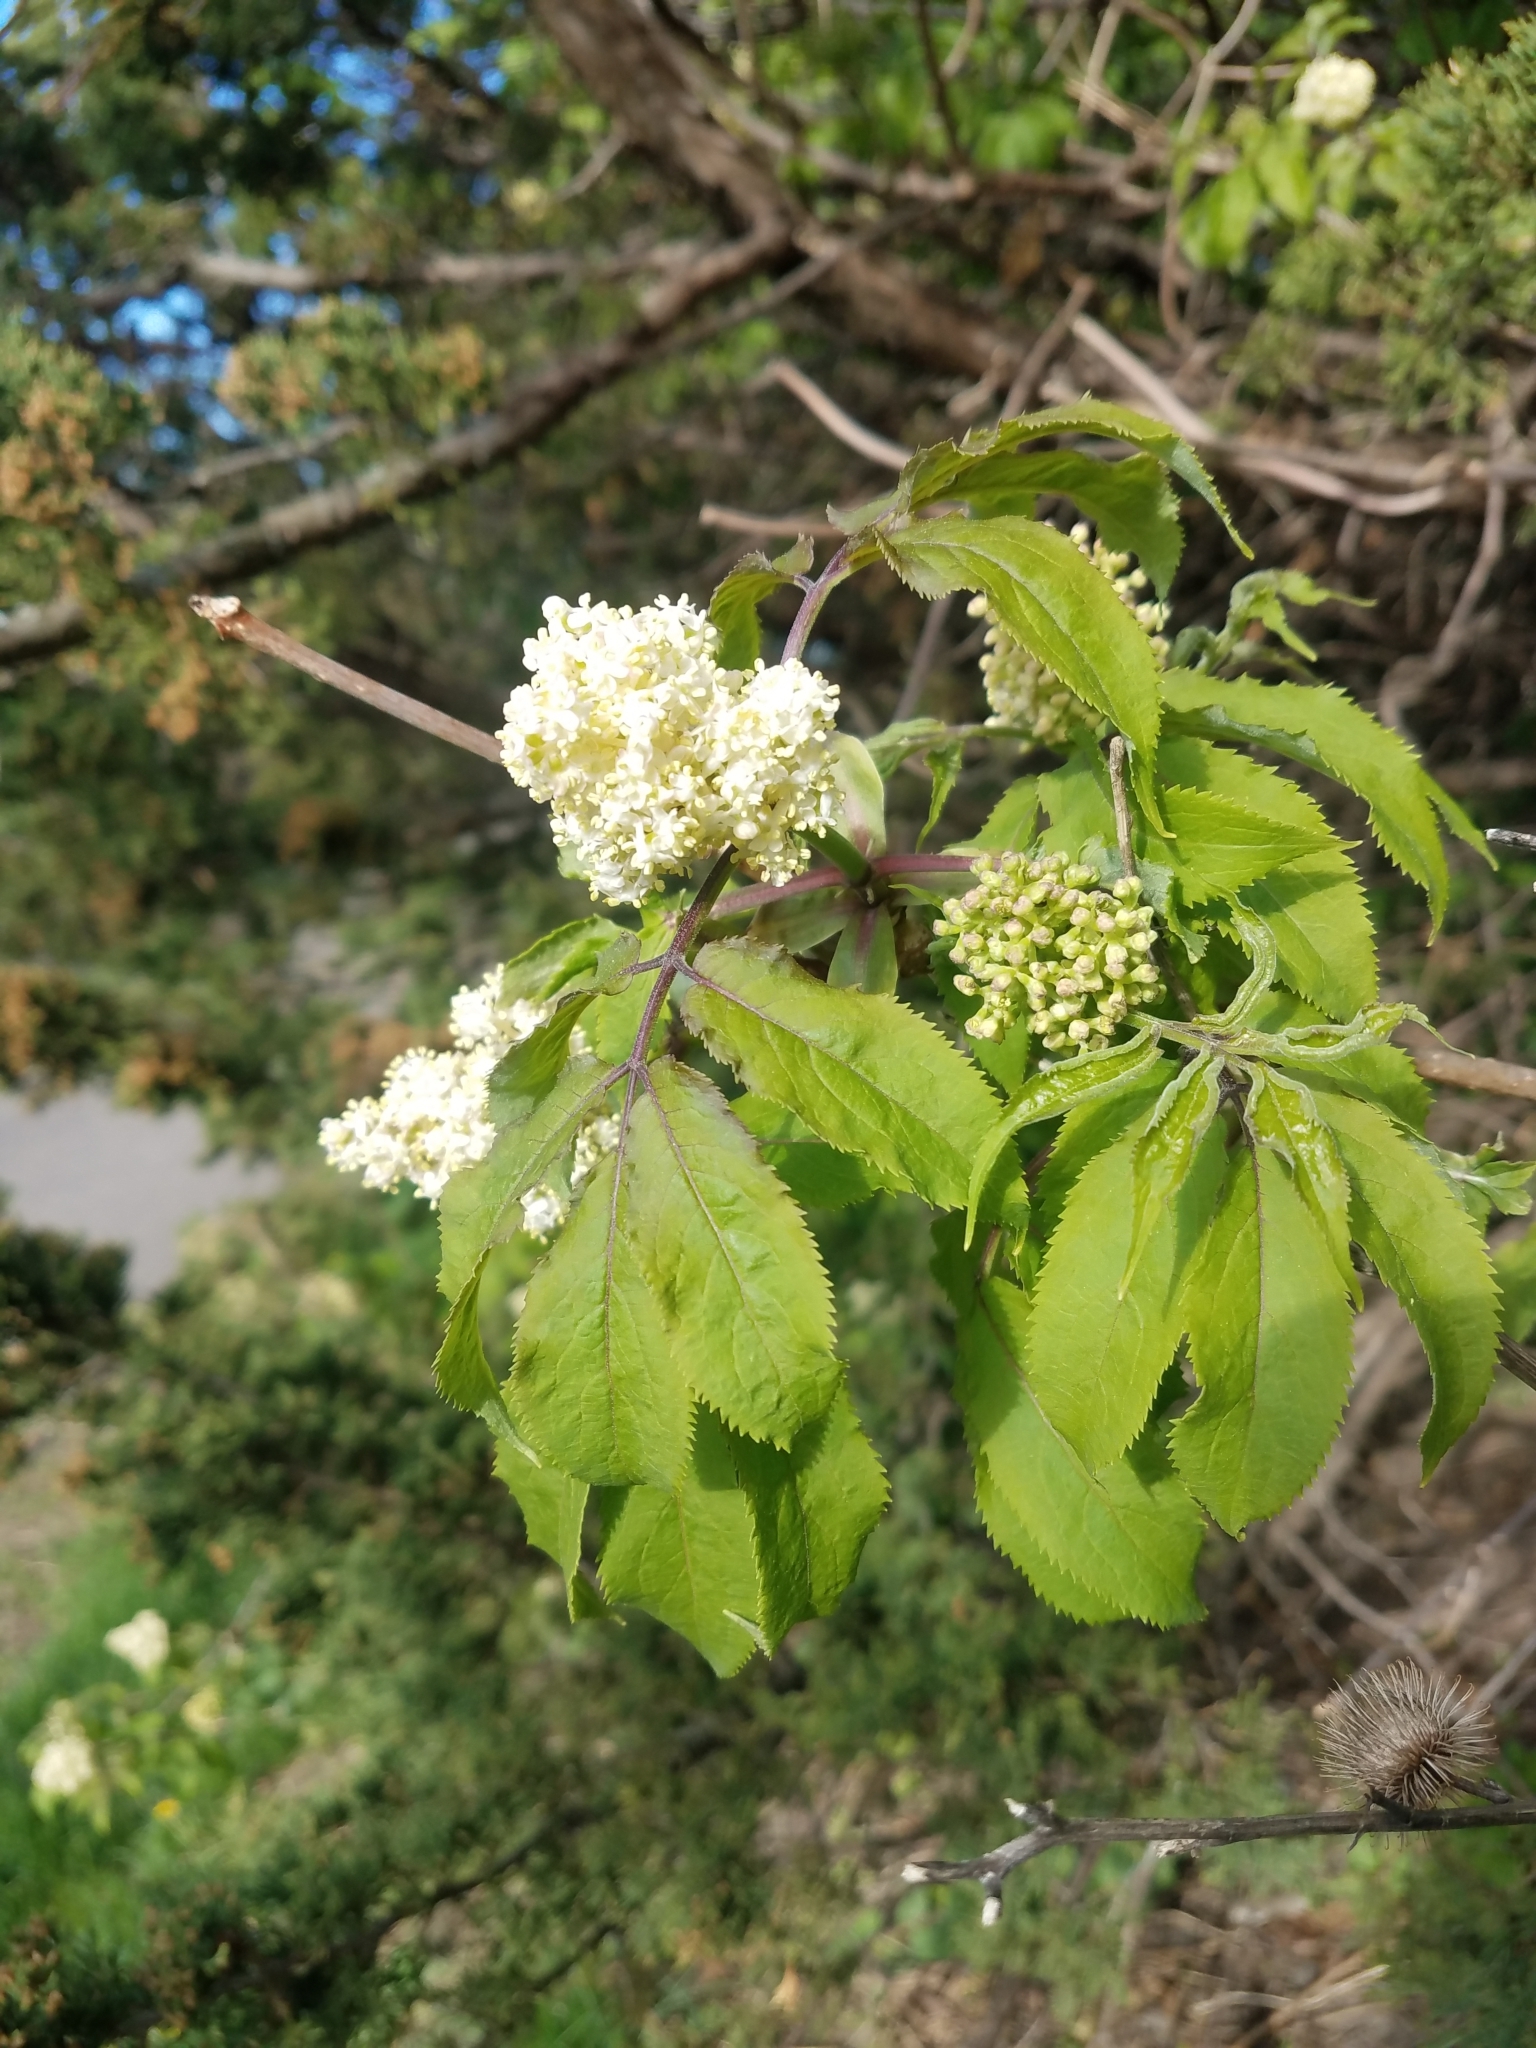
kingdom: Plantae
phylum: Tracheophyta
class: Magnoliopsida
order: Dipsacales
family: Viburnaceae
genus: Sambucus
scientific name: Sambucus racemosa
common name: Red-berried elder
